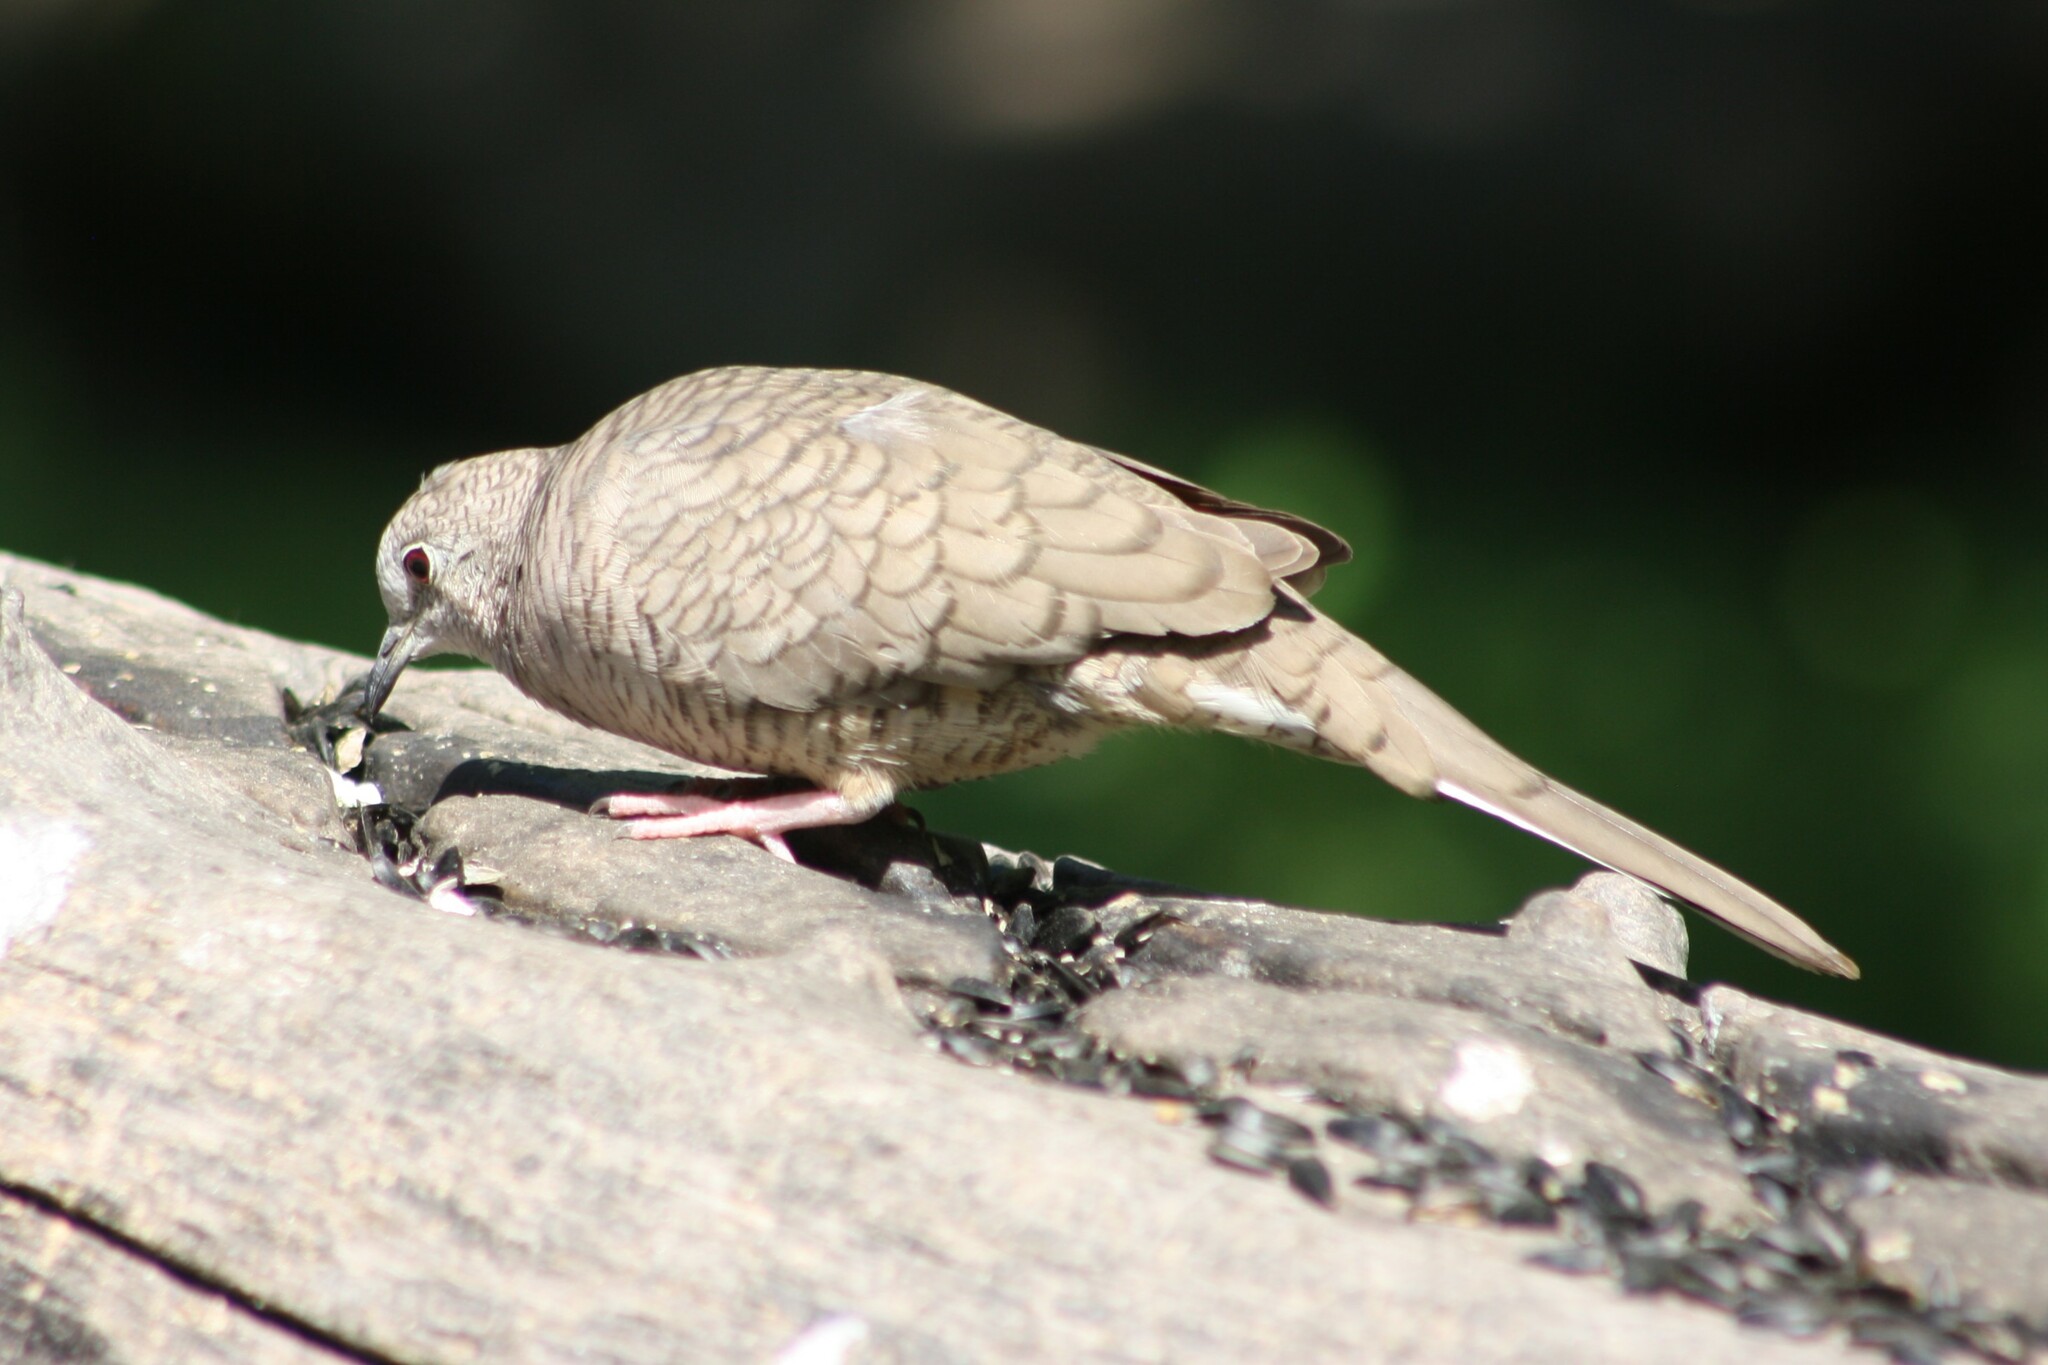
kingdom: Animalia
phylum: Chordata
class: Aves
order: Columbiformes
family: Columbidae
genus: Columbina
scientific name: Columbina inca
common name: Inca dove
